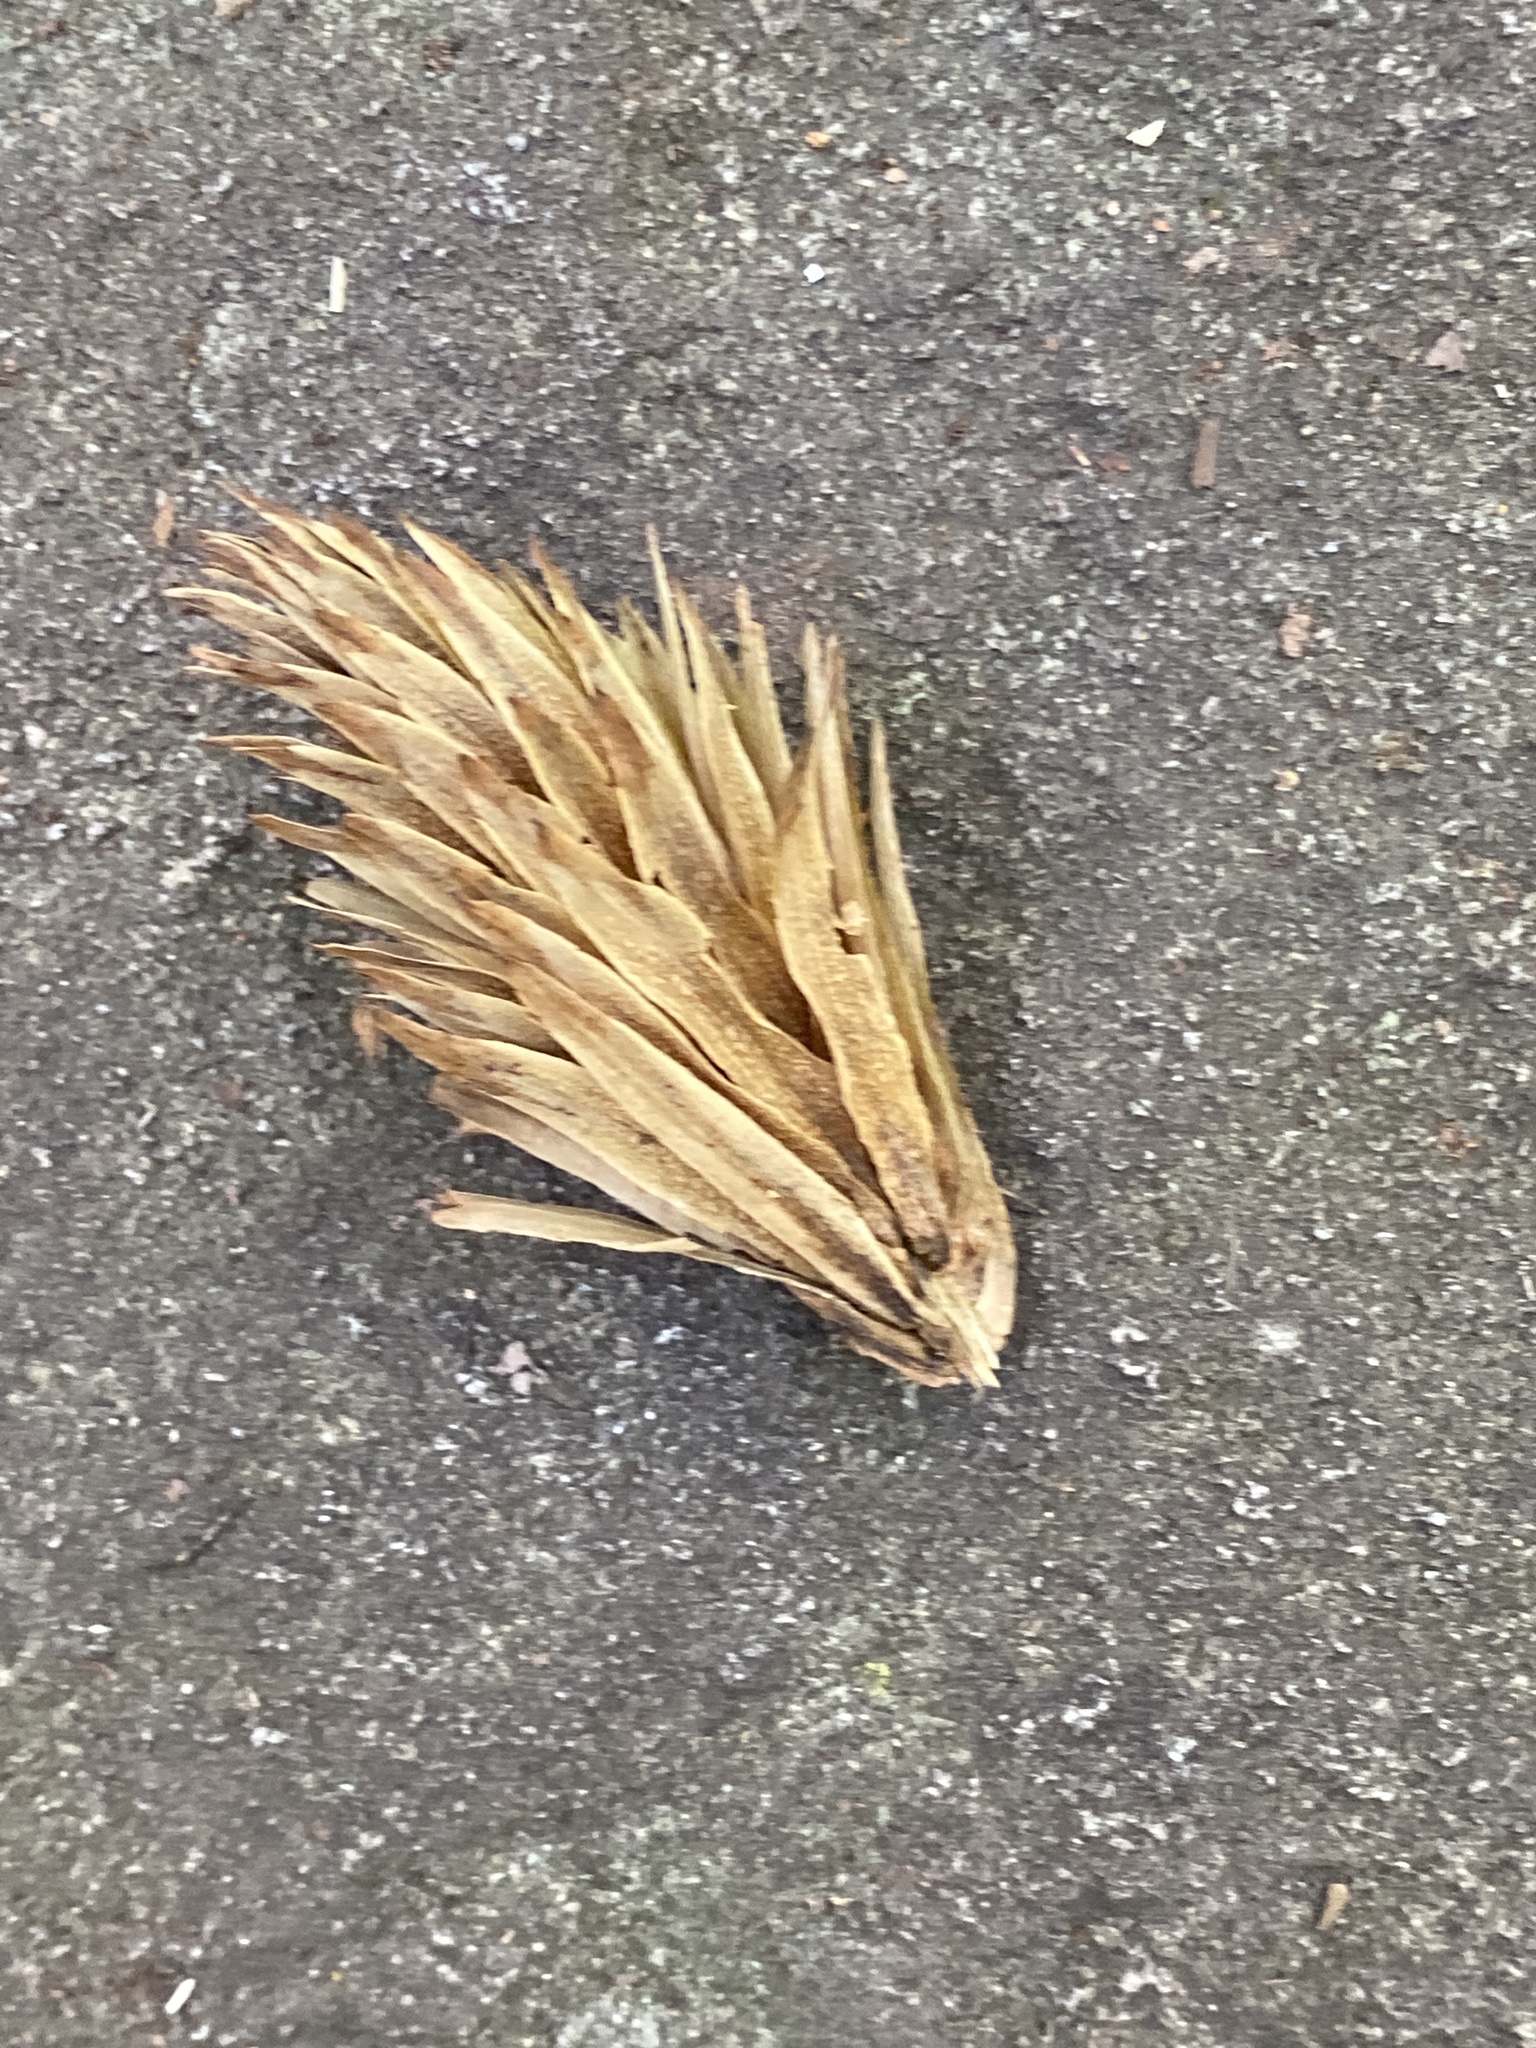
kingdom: Plantae
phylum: Tracheophyta
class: Magnoliopsida
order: Magnoliales
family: Magnoliaceae
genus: Liriodendron
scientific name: Liriodendron tulipifera
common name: Tulip tree
